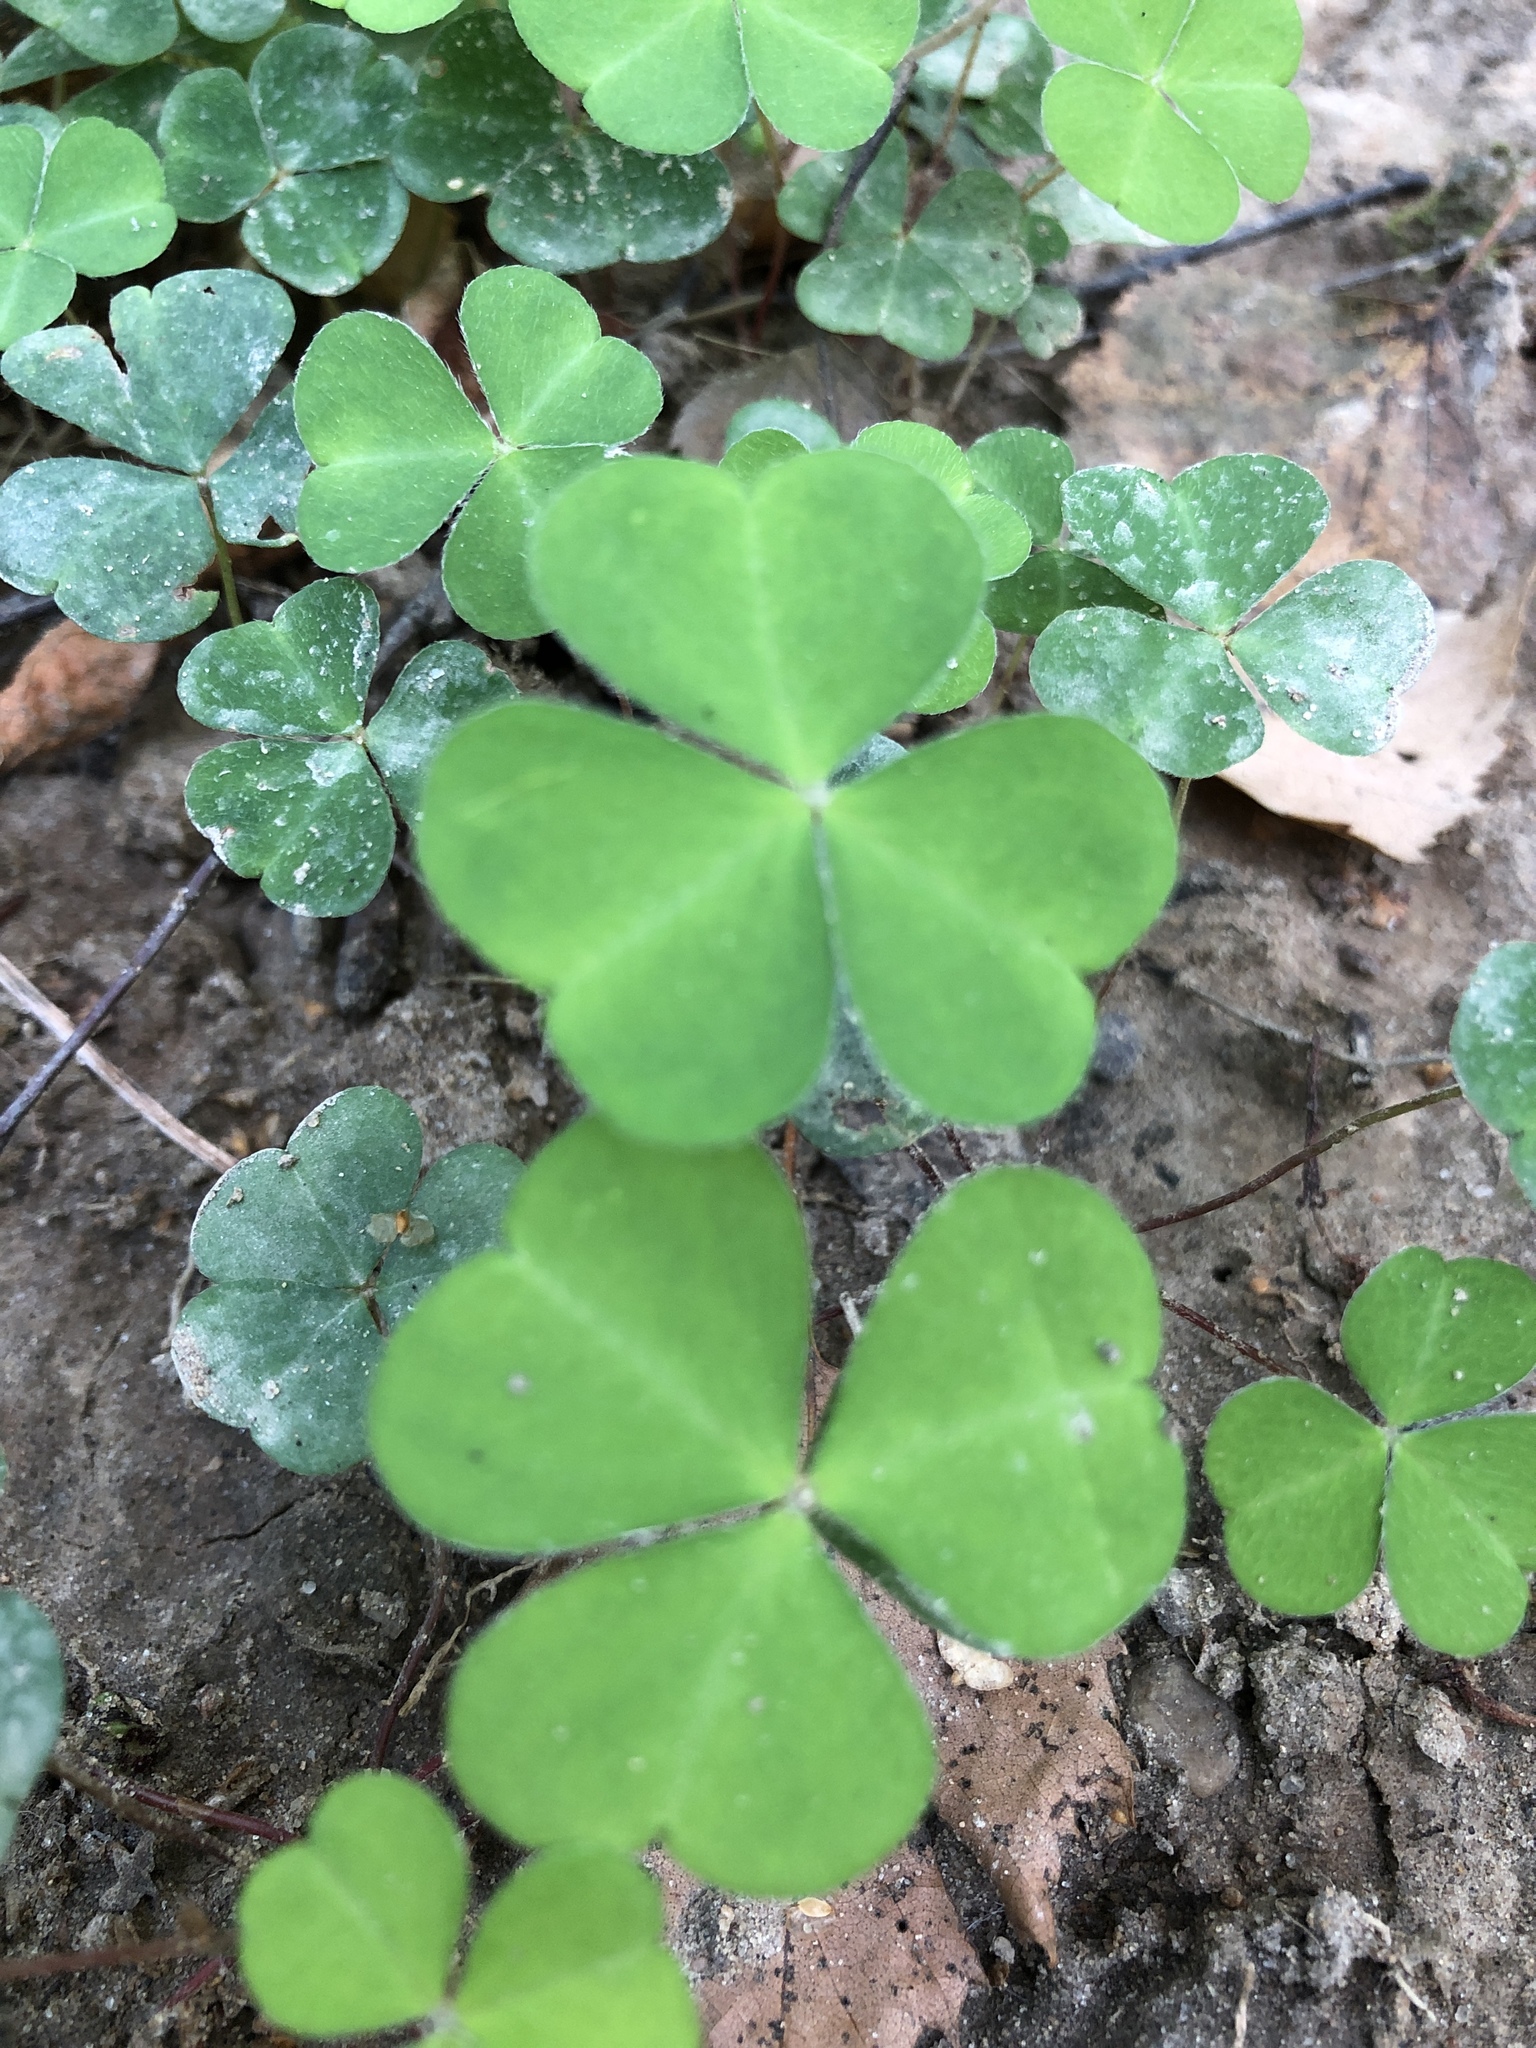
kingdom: Plantae
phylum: Tracheophyta
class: Magnoliopsida
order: Oxalidales
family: Oxalidaceae
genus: Oxalis
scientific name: Oxalis acetosella
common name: Wood-sorrel
